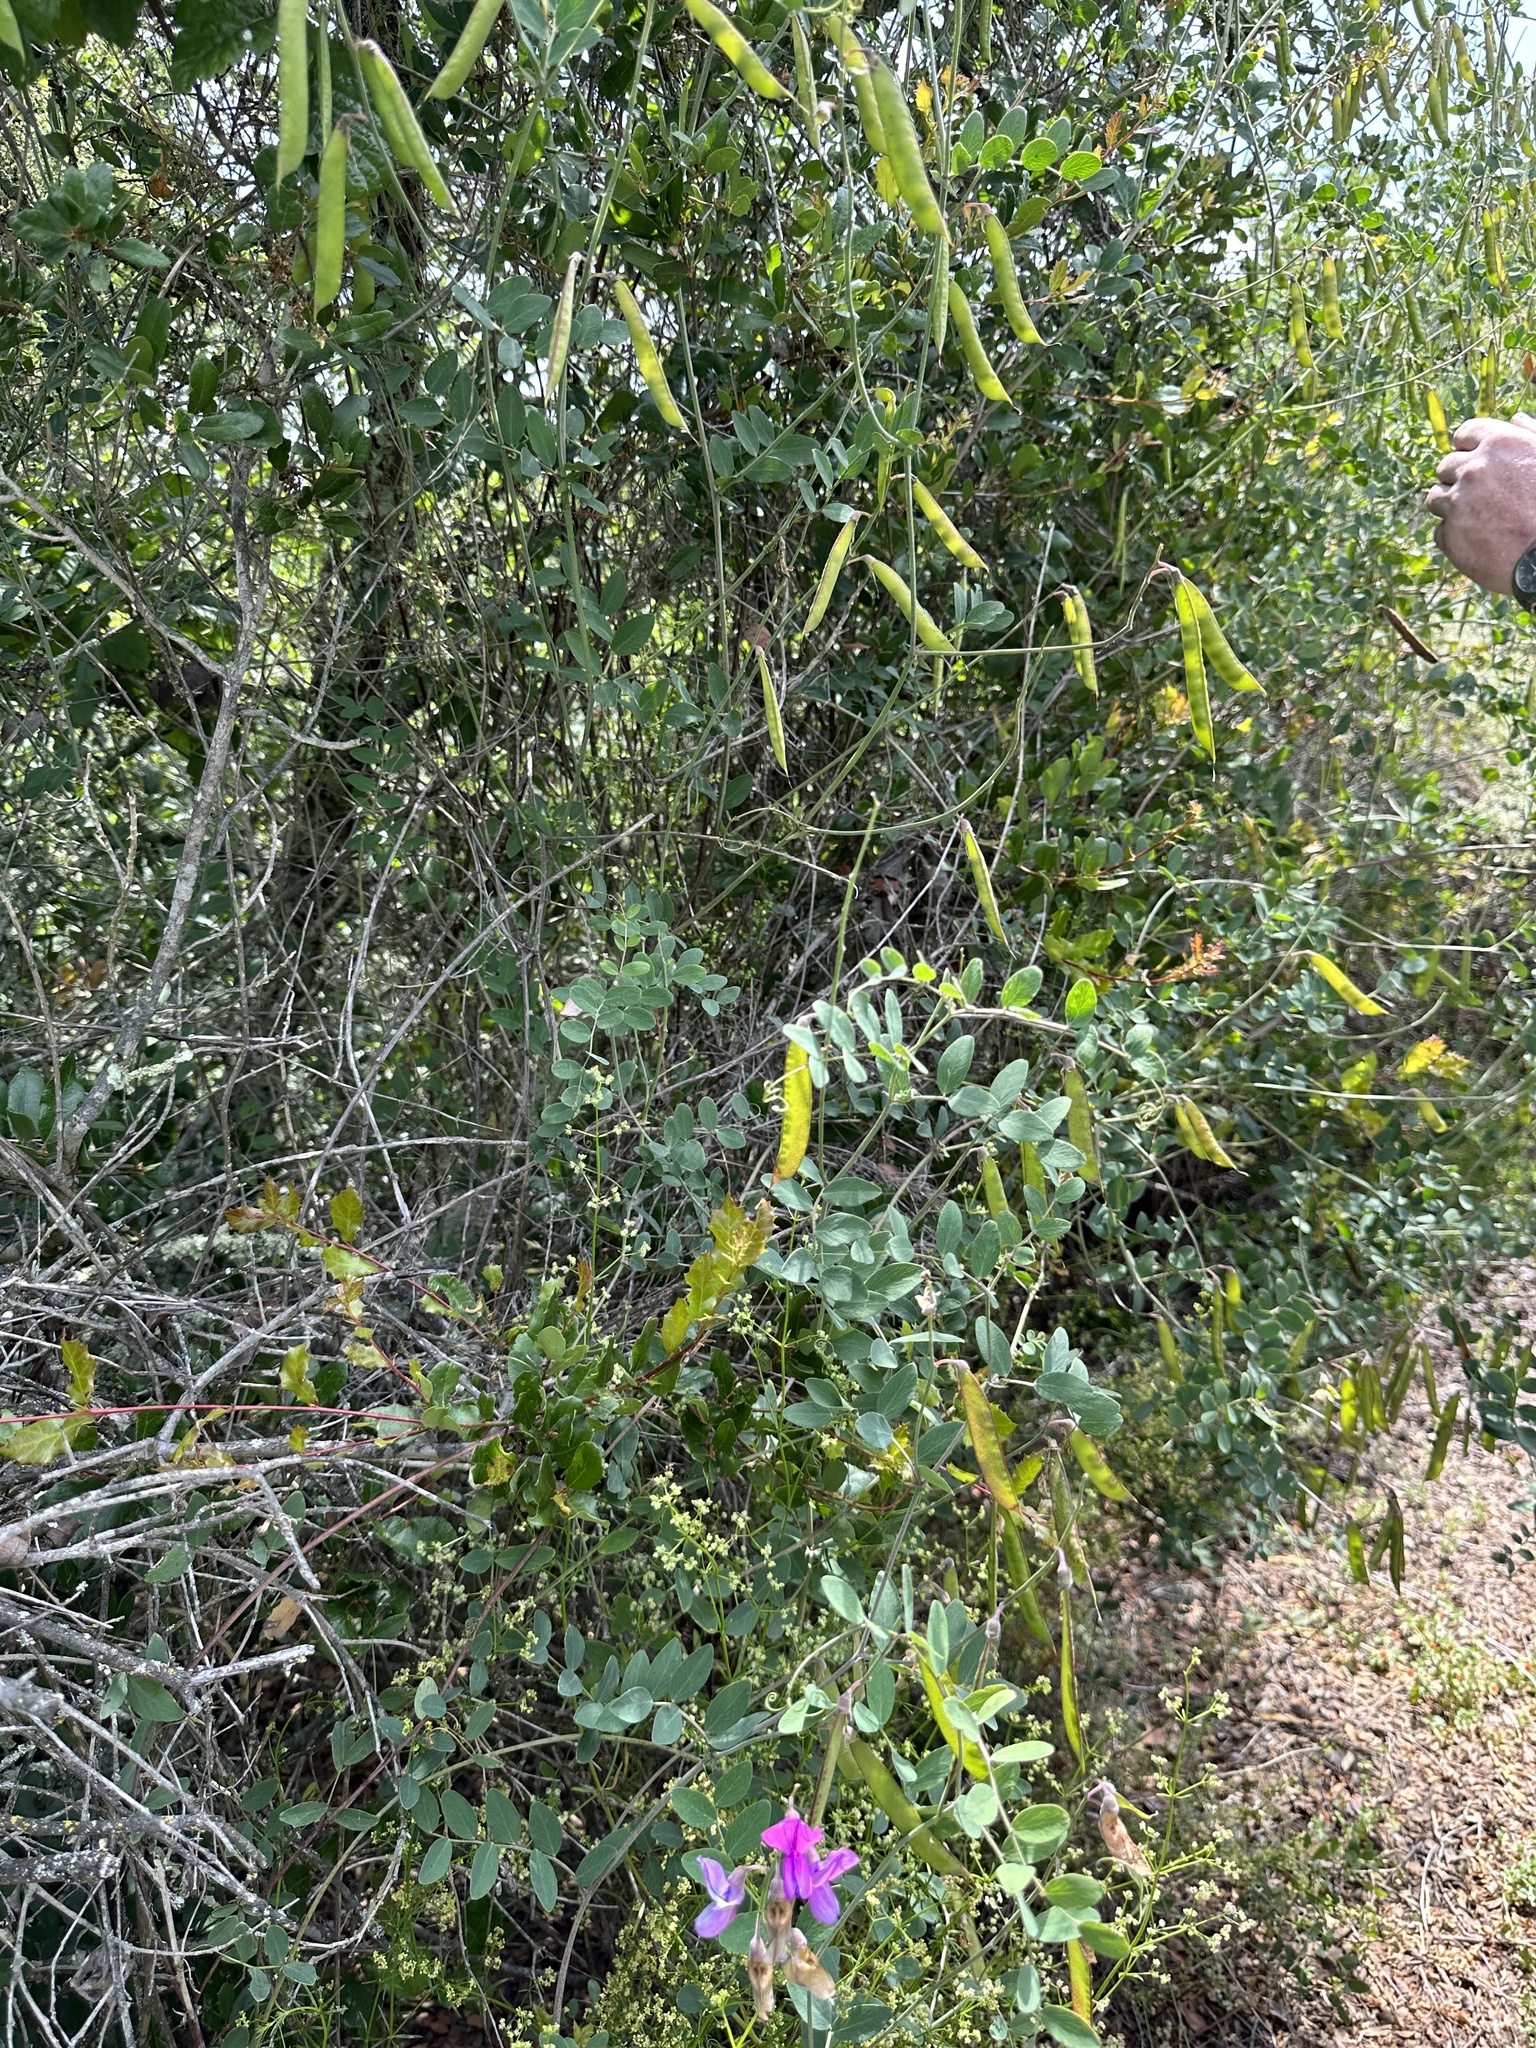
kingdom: Plantae
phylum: Tracheophyta
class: Magnoliopsida
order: Fabales
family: Fabaceae
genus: Lathyrus
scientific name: Lathyrus vestitus
